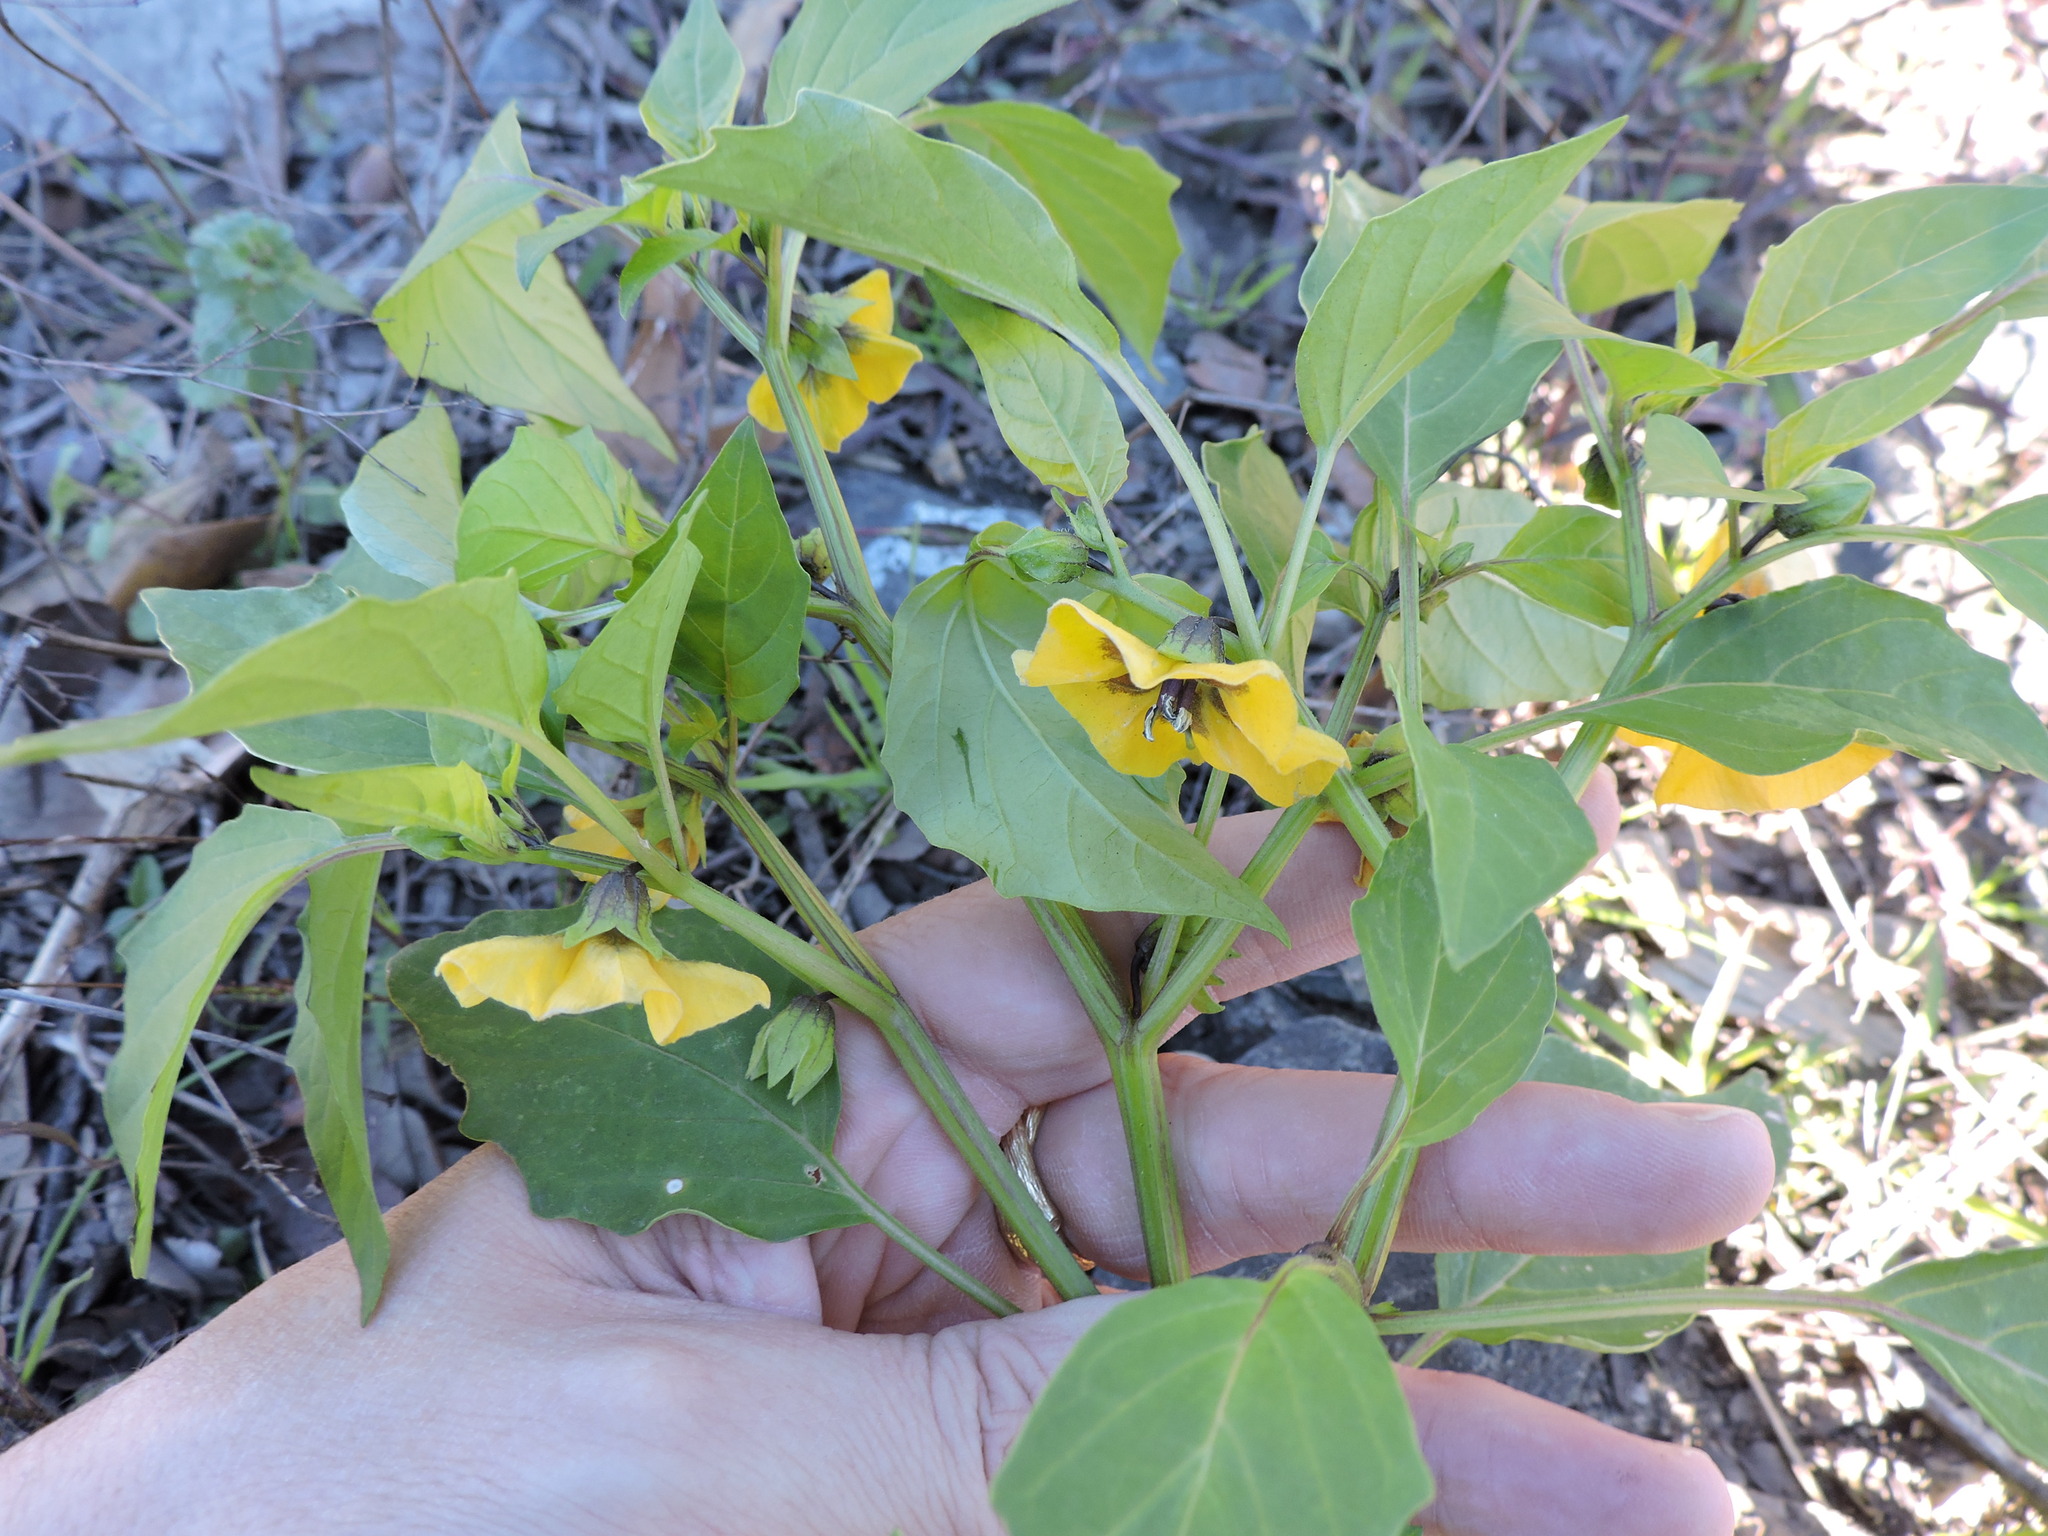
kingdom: Plantae
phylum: Tracheophyta
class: Magnoliopsida
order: Solanales
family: Solanaceae
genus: Physalis
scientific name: Physalis philadelphica
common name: Husk-tomato
